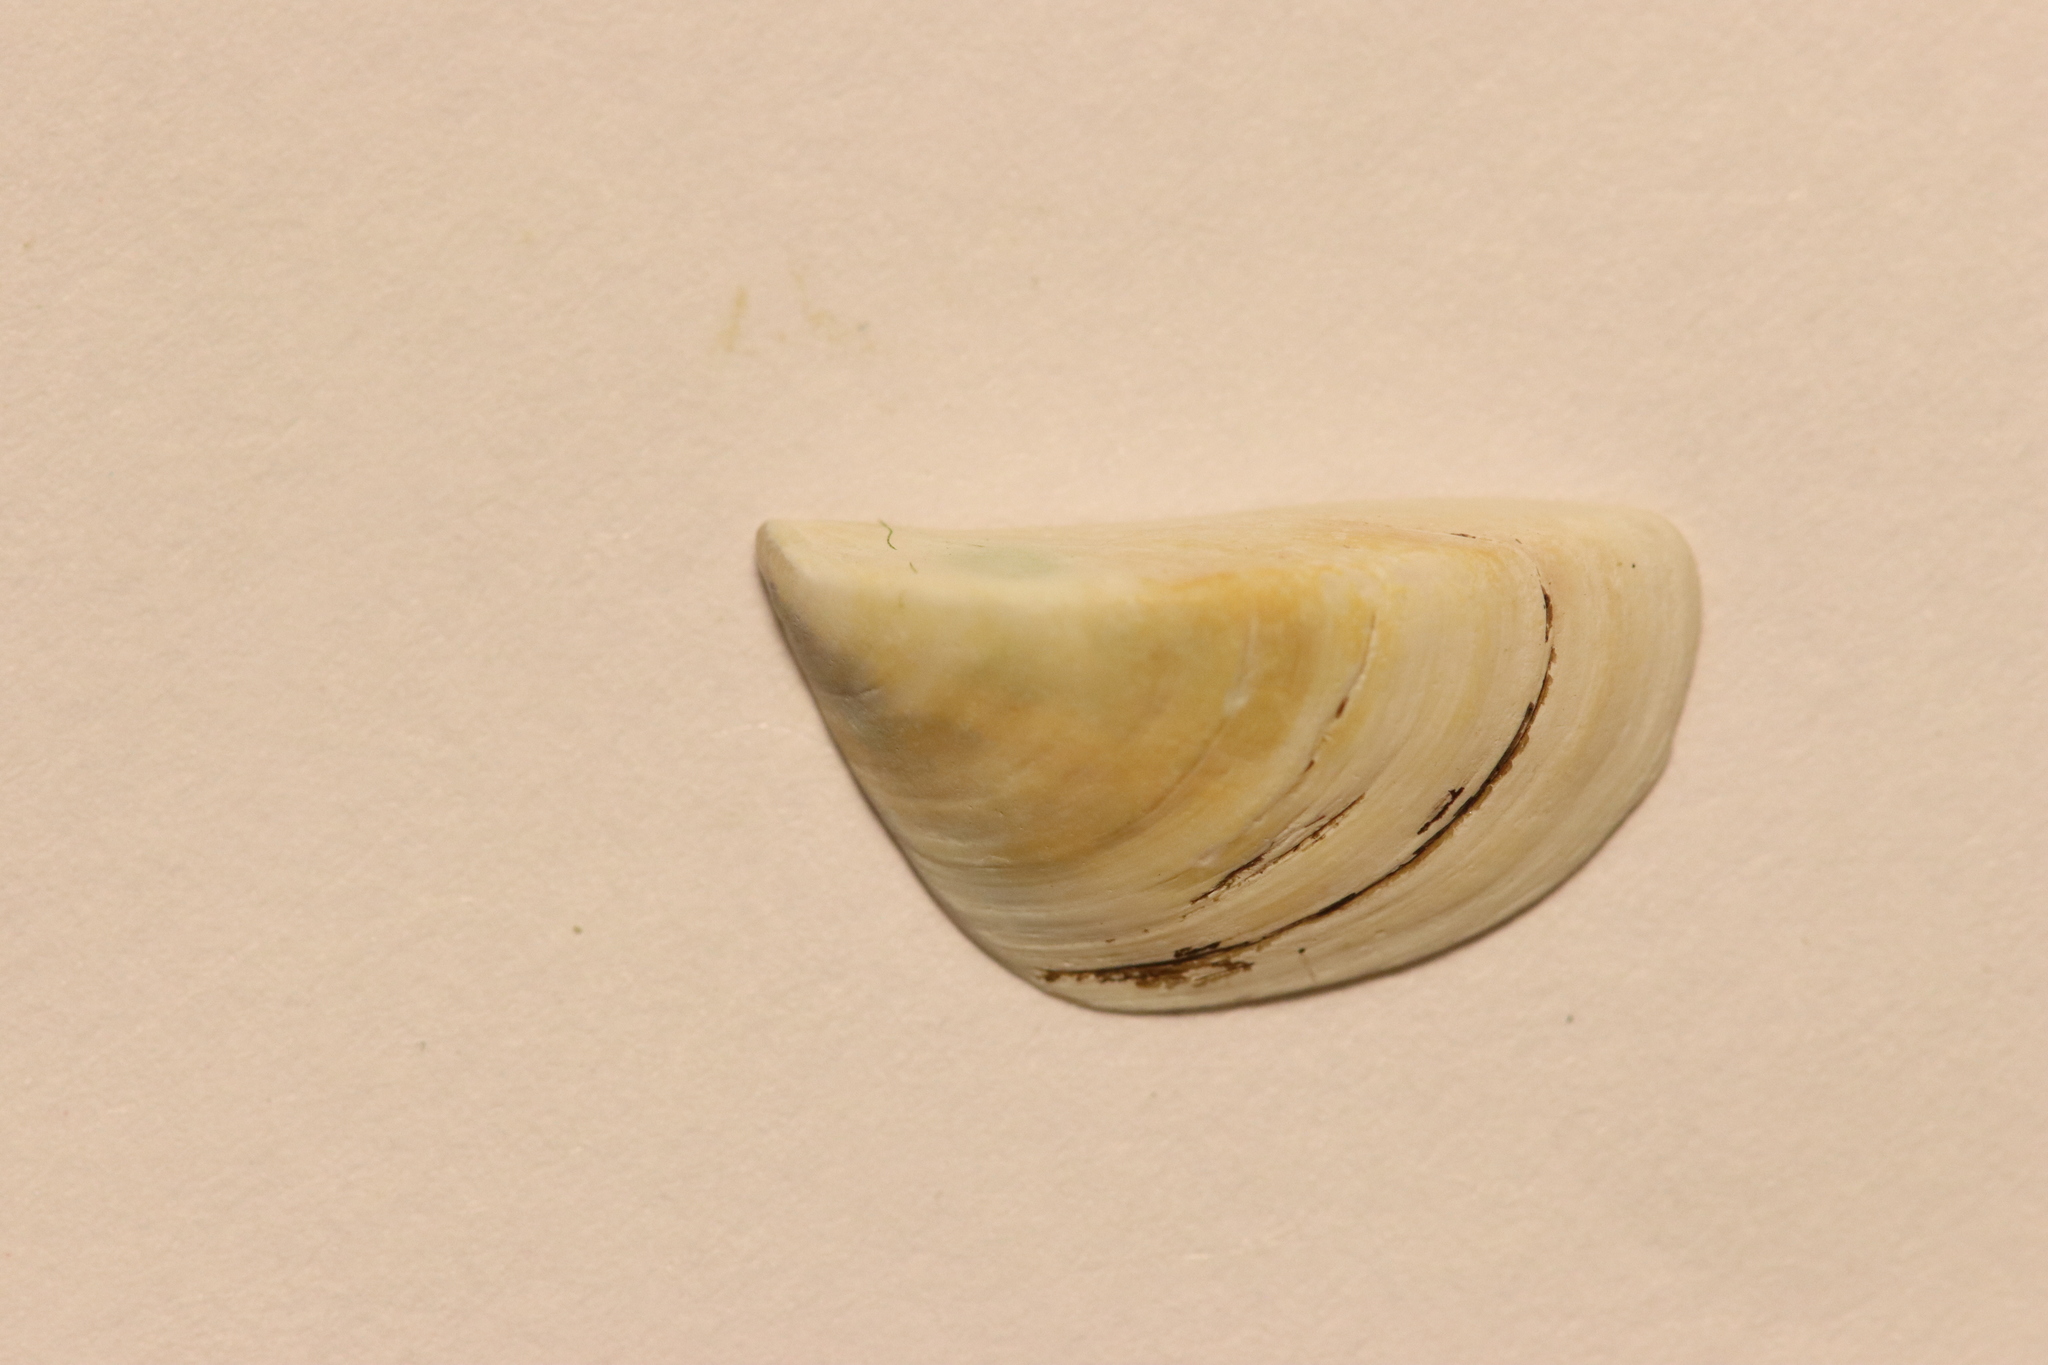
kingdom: Animalia
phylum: Mollusca
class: Bivalvia
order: Myida
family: Dreissenidae
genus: Dreissena
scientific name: Dreissena polymorpha
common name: Zebra mussel
